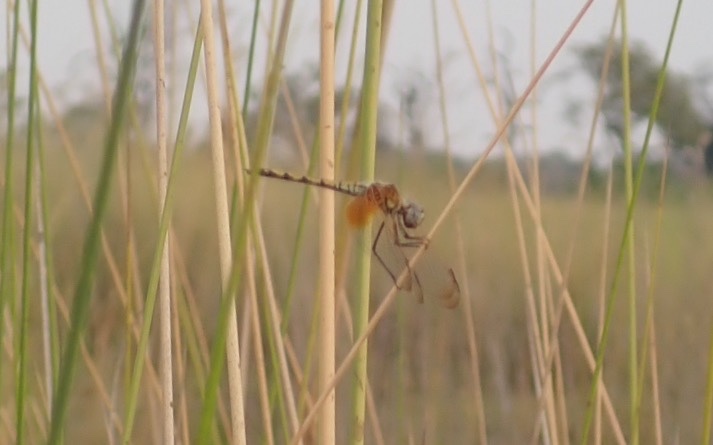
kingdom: Animalia
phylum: Arthropoda
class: Insecta
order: Odonata
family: Libellulidae
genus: Trithemis
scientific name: Trithemis monardi
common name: Monard's dropwing
